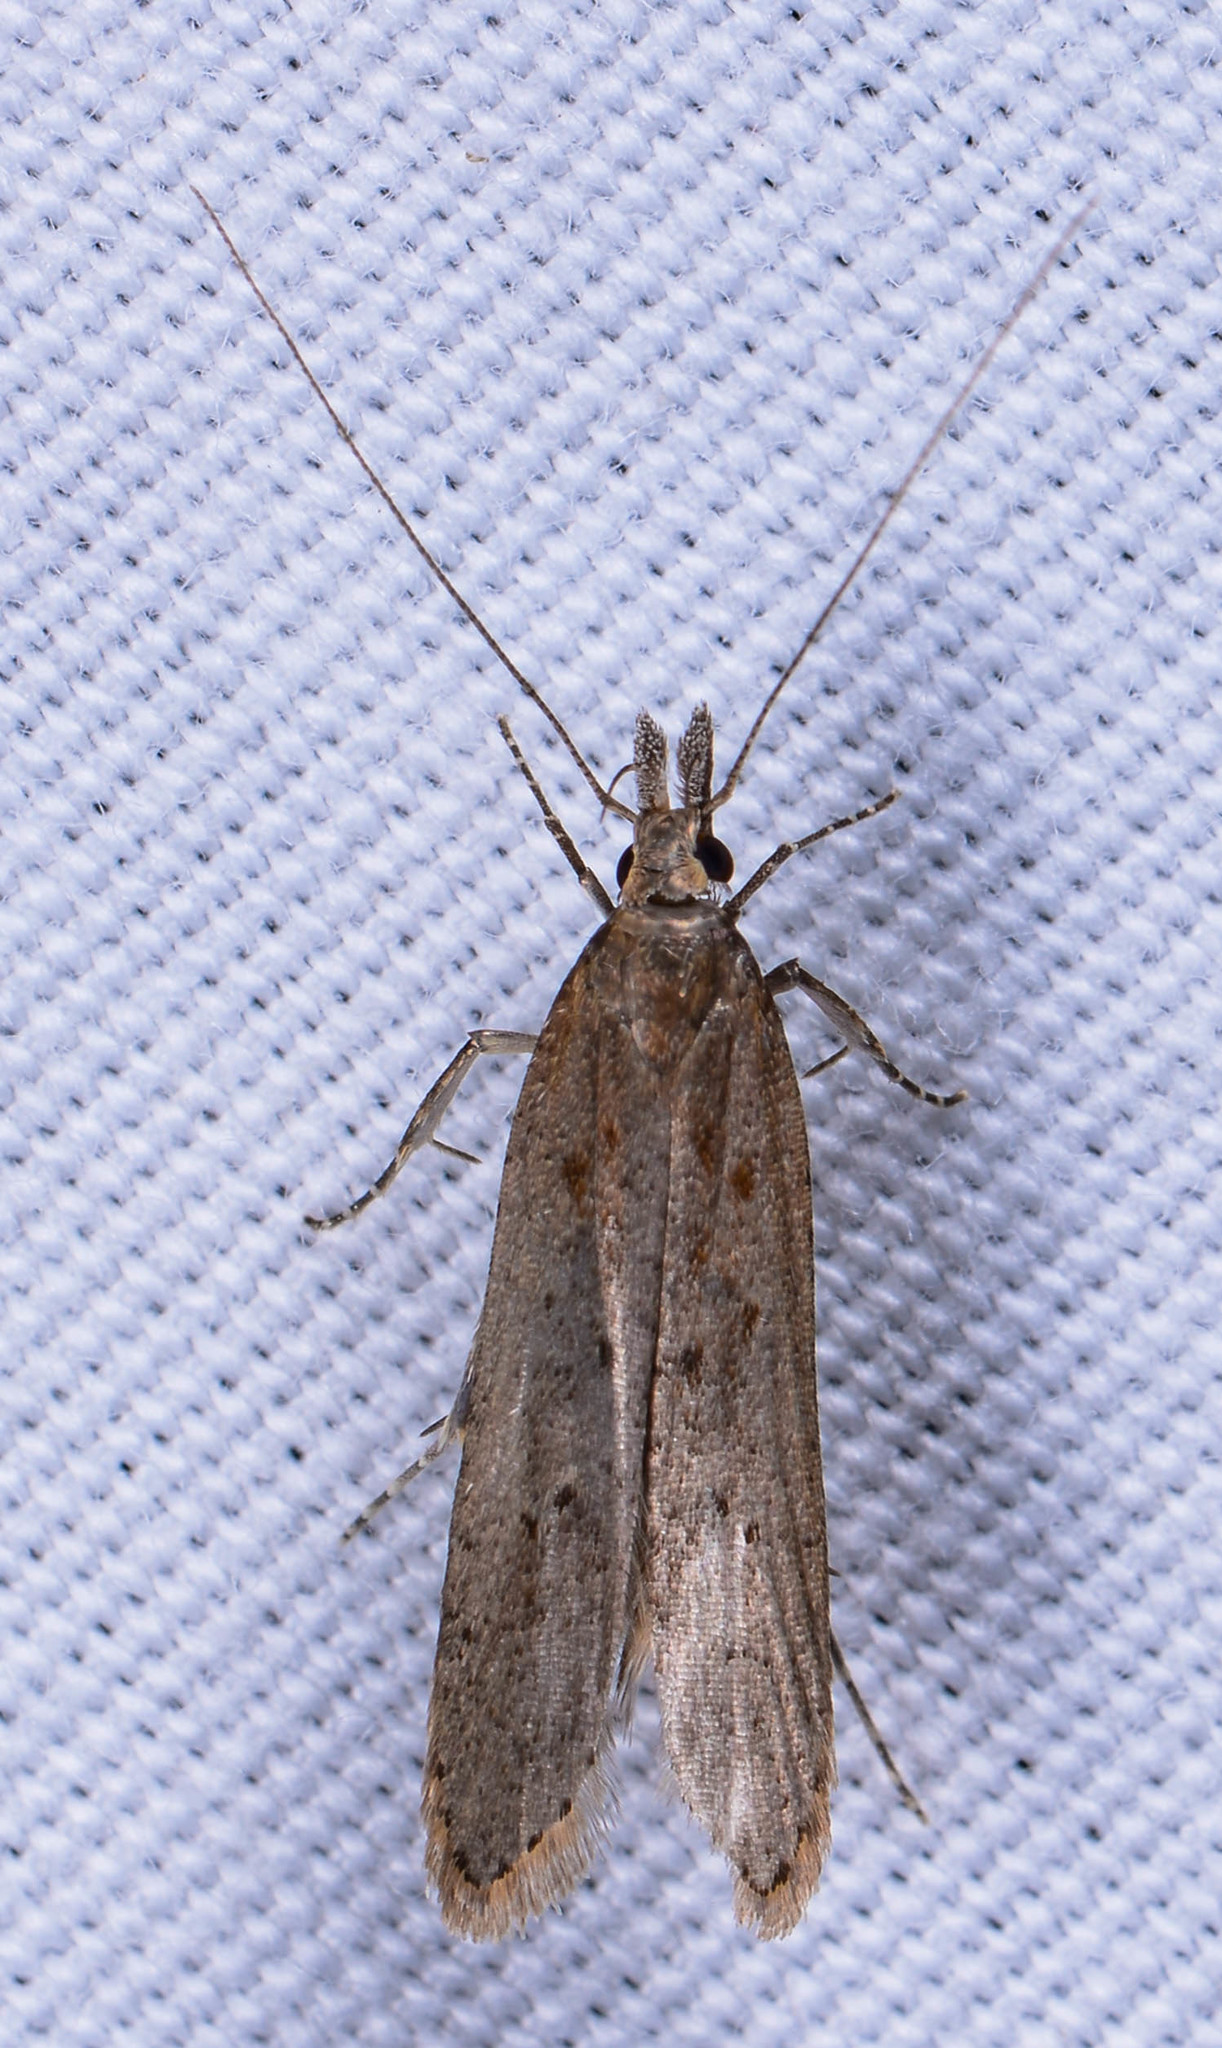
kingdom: Animalia
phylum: Arthropoda
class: Insecta
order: Lepidoptera
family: Gelechiidae
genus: Dichomeris
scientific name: Dichomeris ligulella
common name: Moth
